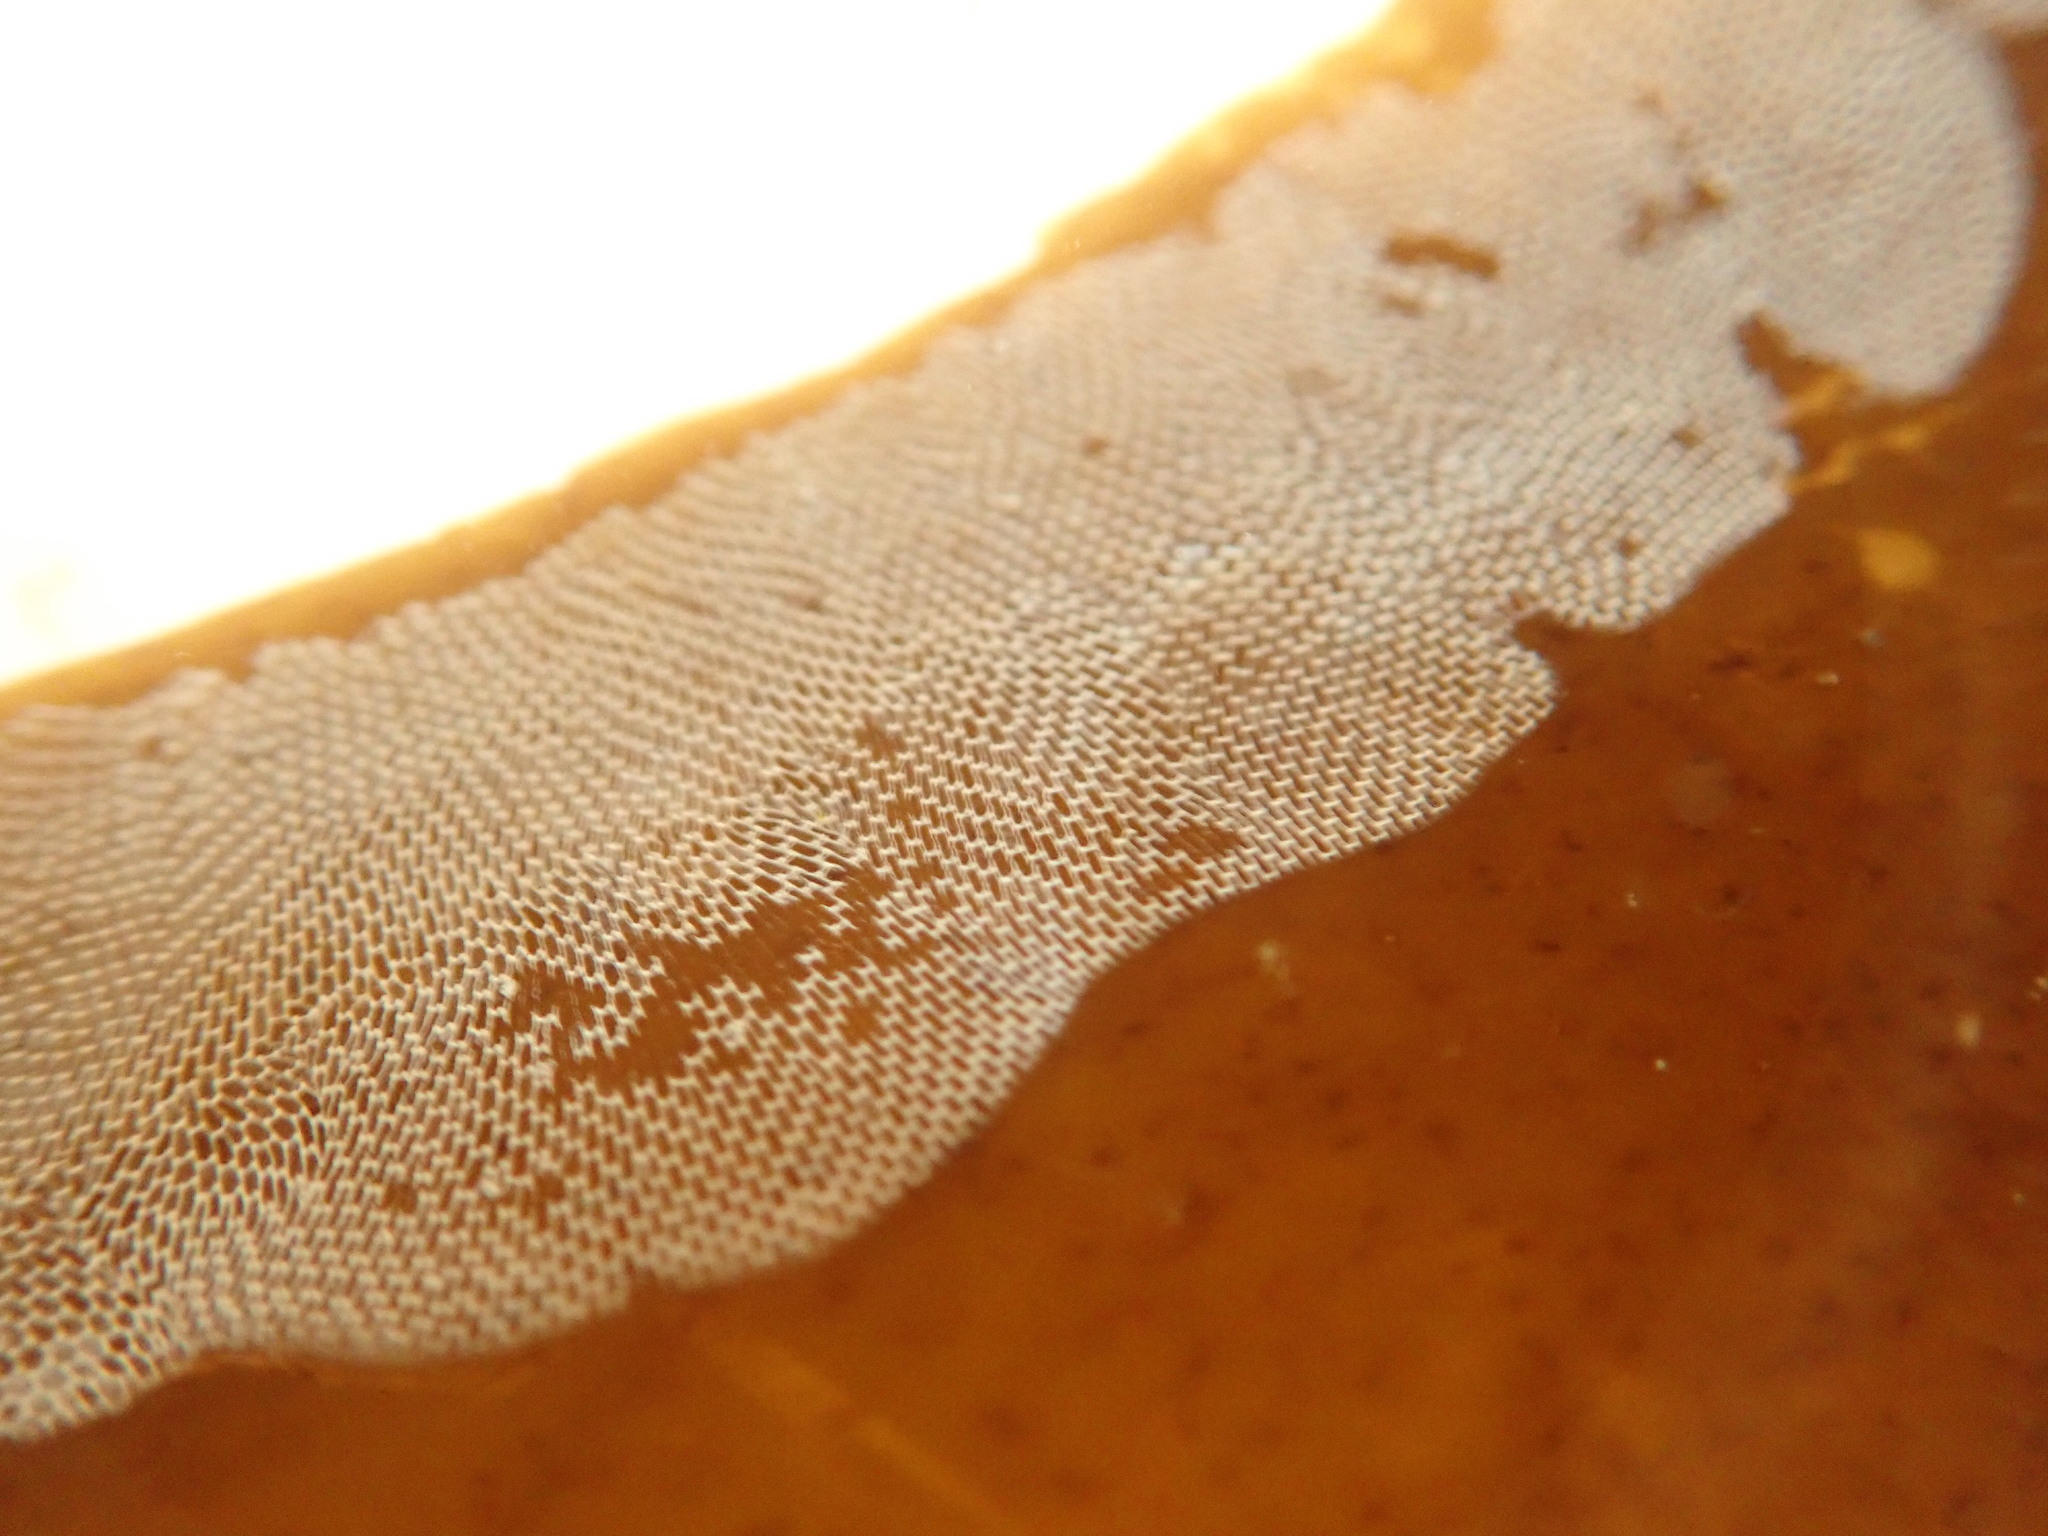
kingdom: Animalia
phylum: Bryozoa
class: Gymnolaemata
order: Cheilostomatida
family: Membraniporidae
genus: Membranipora
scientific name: Membranipora membranacea
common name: Sea mat
